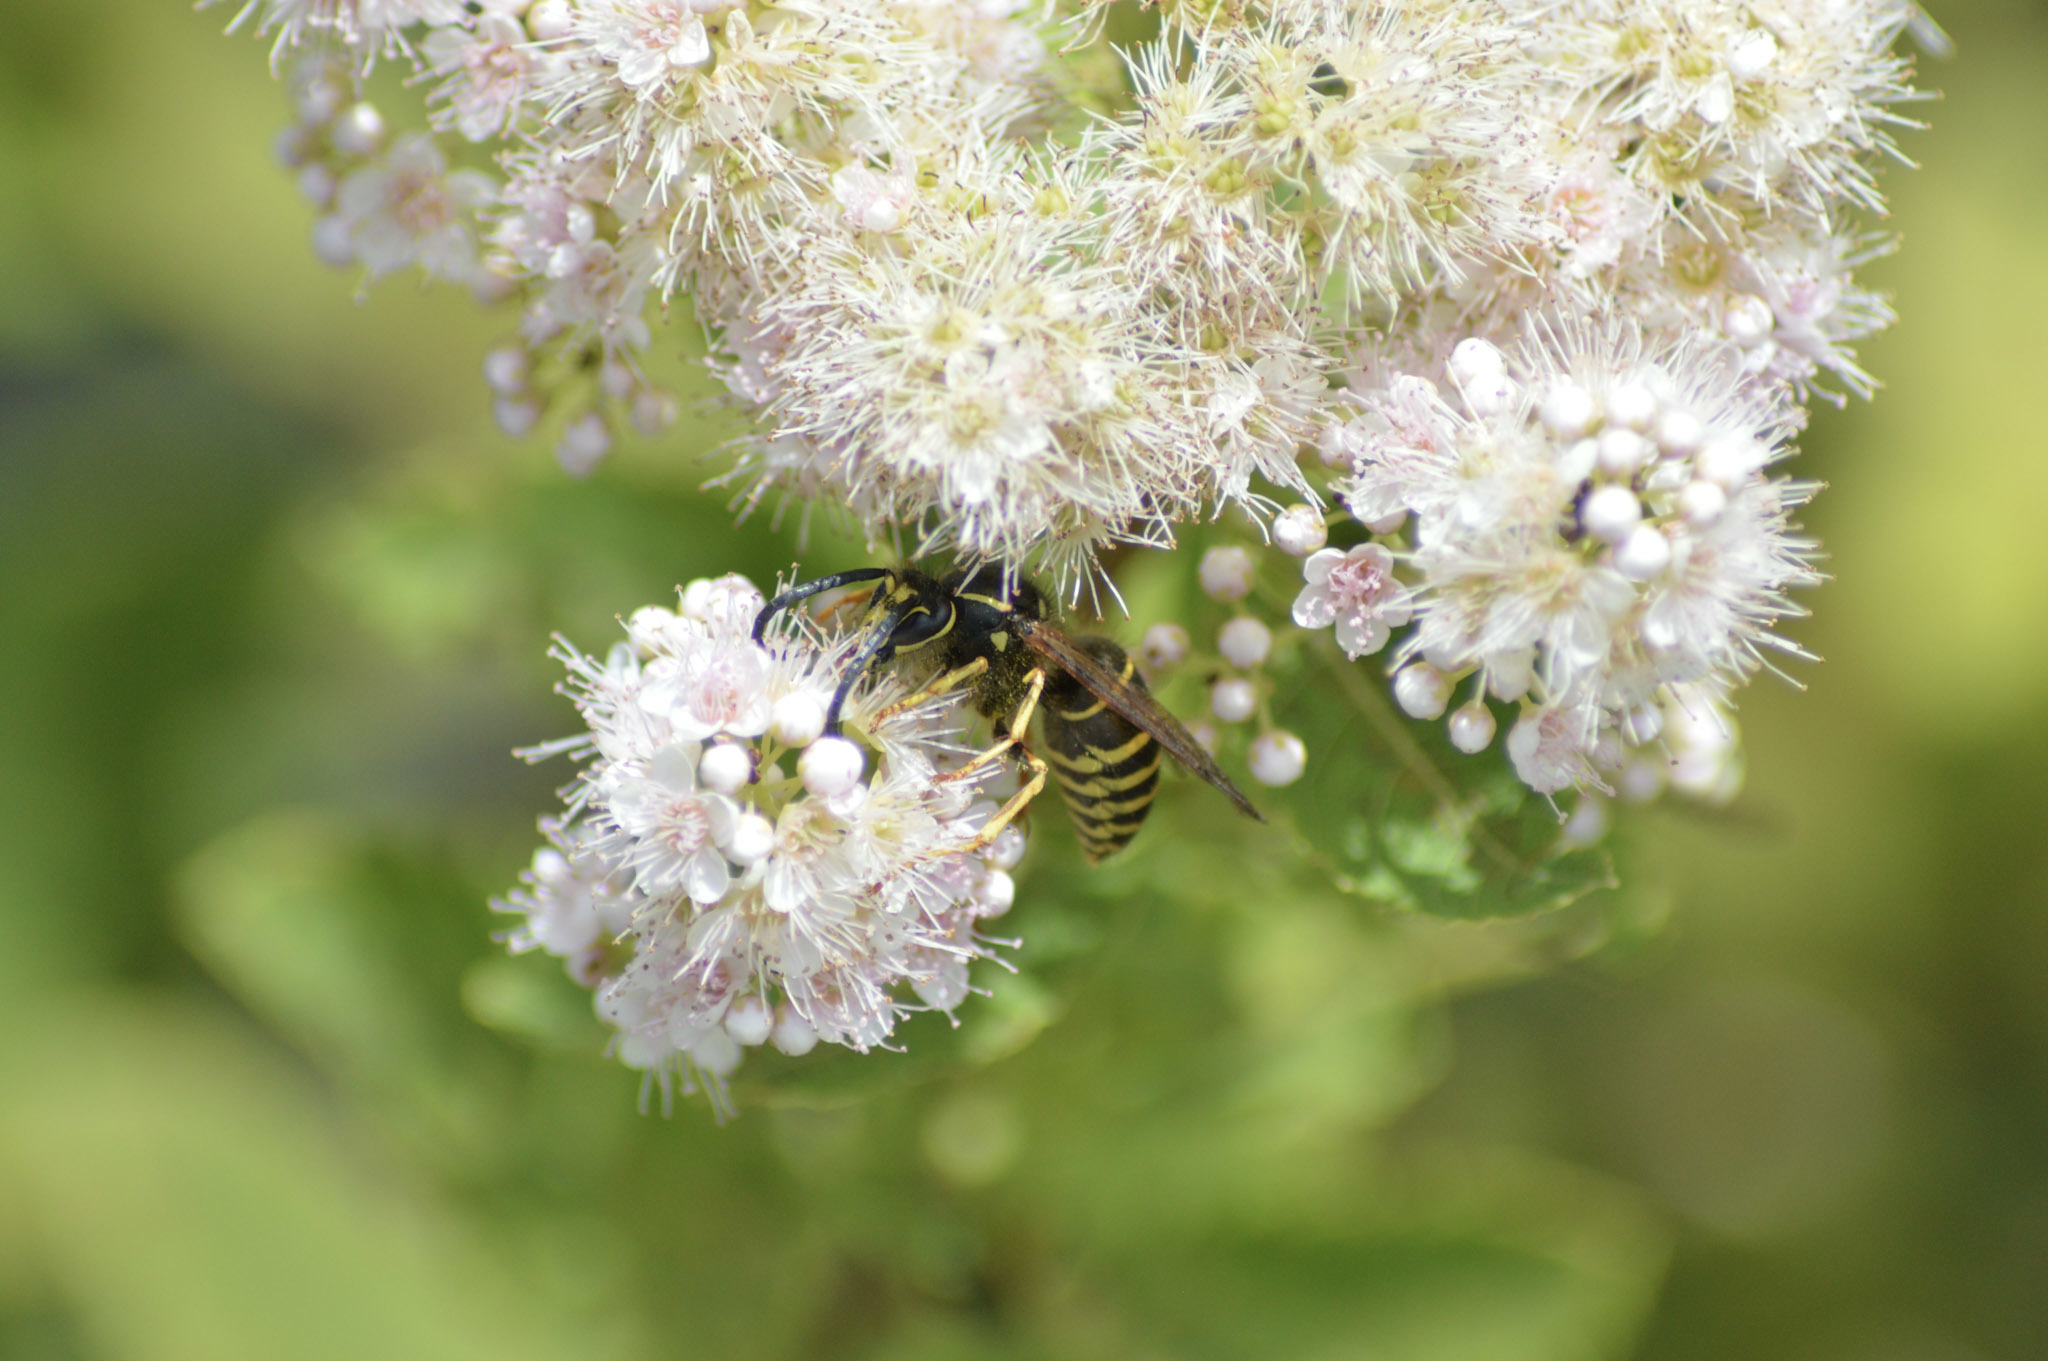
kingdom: Animalia
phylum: Arthropoda
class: Insecta
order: Hymenoptera
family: Vespidae
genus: Dolichovespula
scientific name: Dolichovespula norvegicoides
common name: Northern aerial yellowjacket
